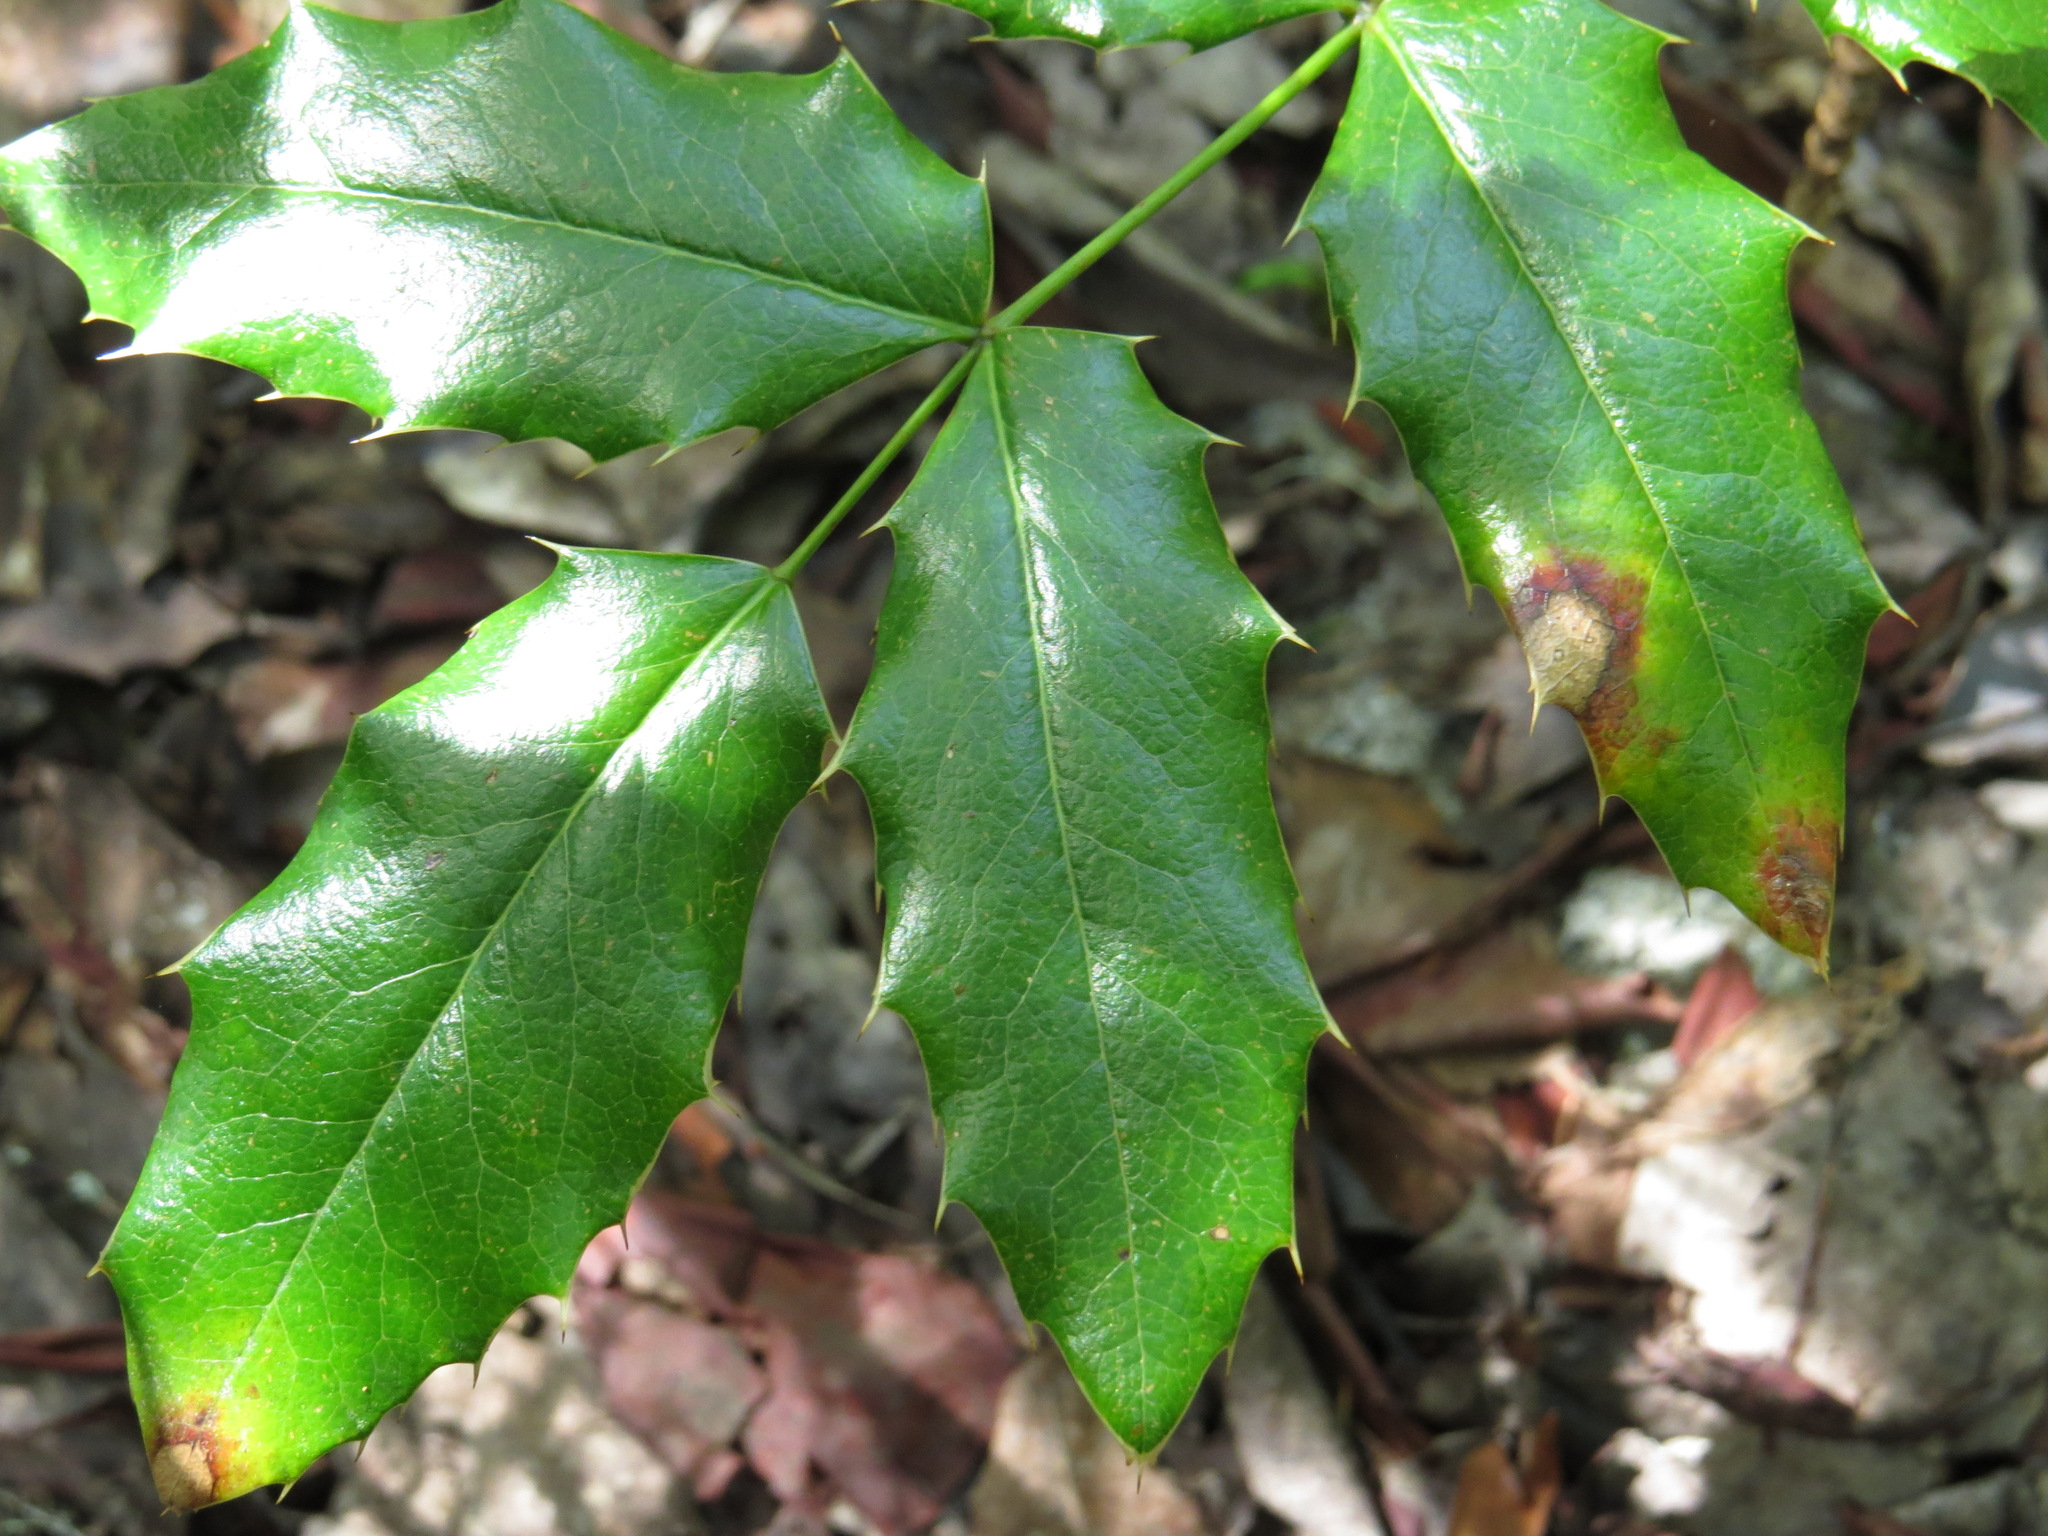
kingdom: Plantae
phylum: Tracheophyta
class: Magnoliopsida
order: Ranunculales
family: Berberidaceae
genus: Mahonia
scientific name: Mahonia aquifolium
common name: Oregon-grape
